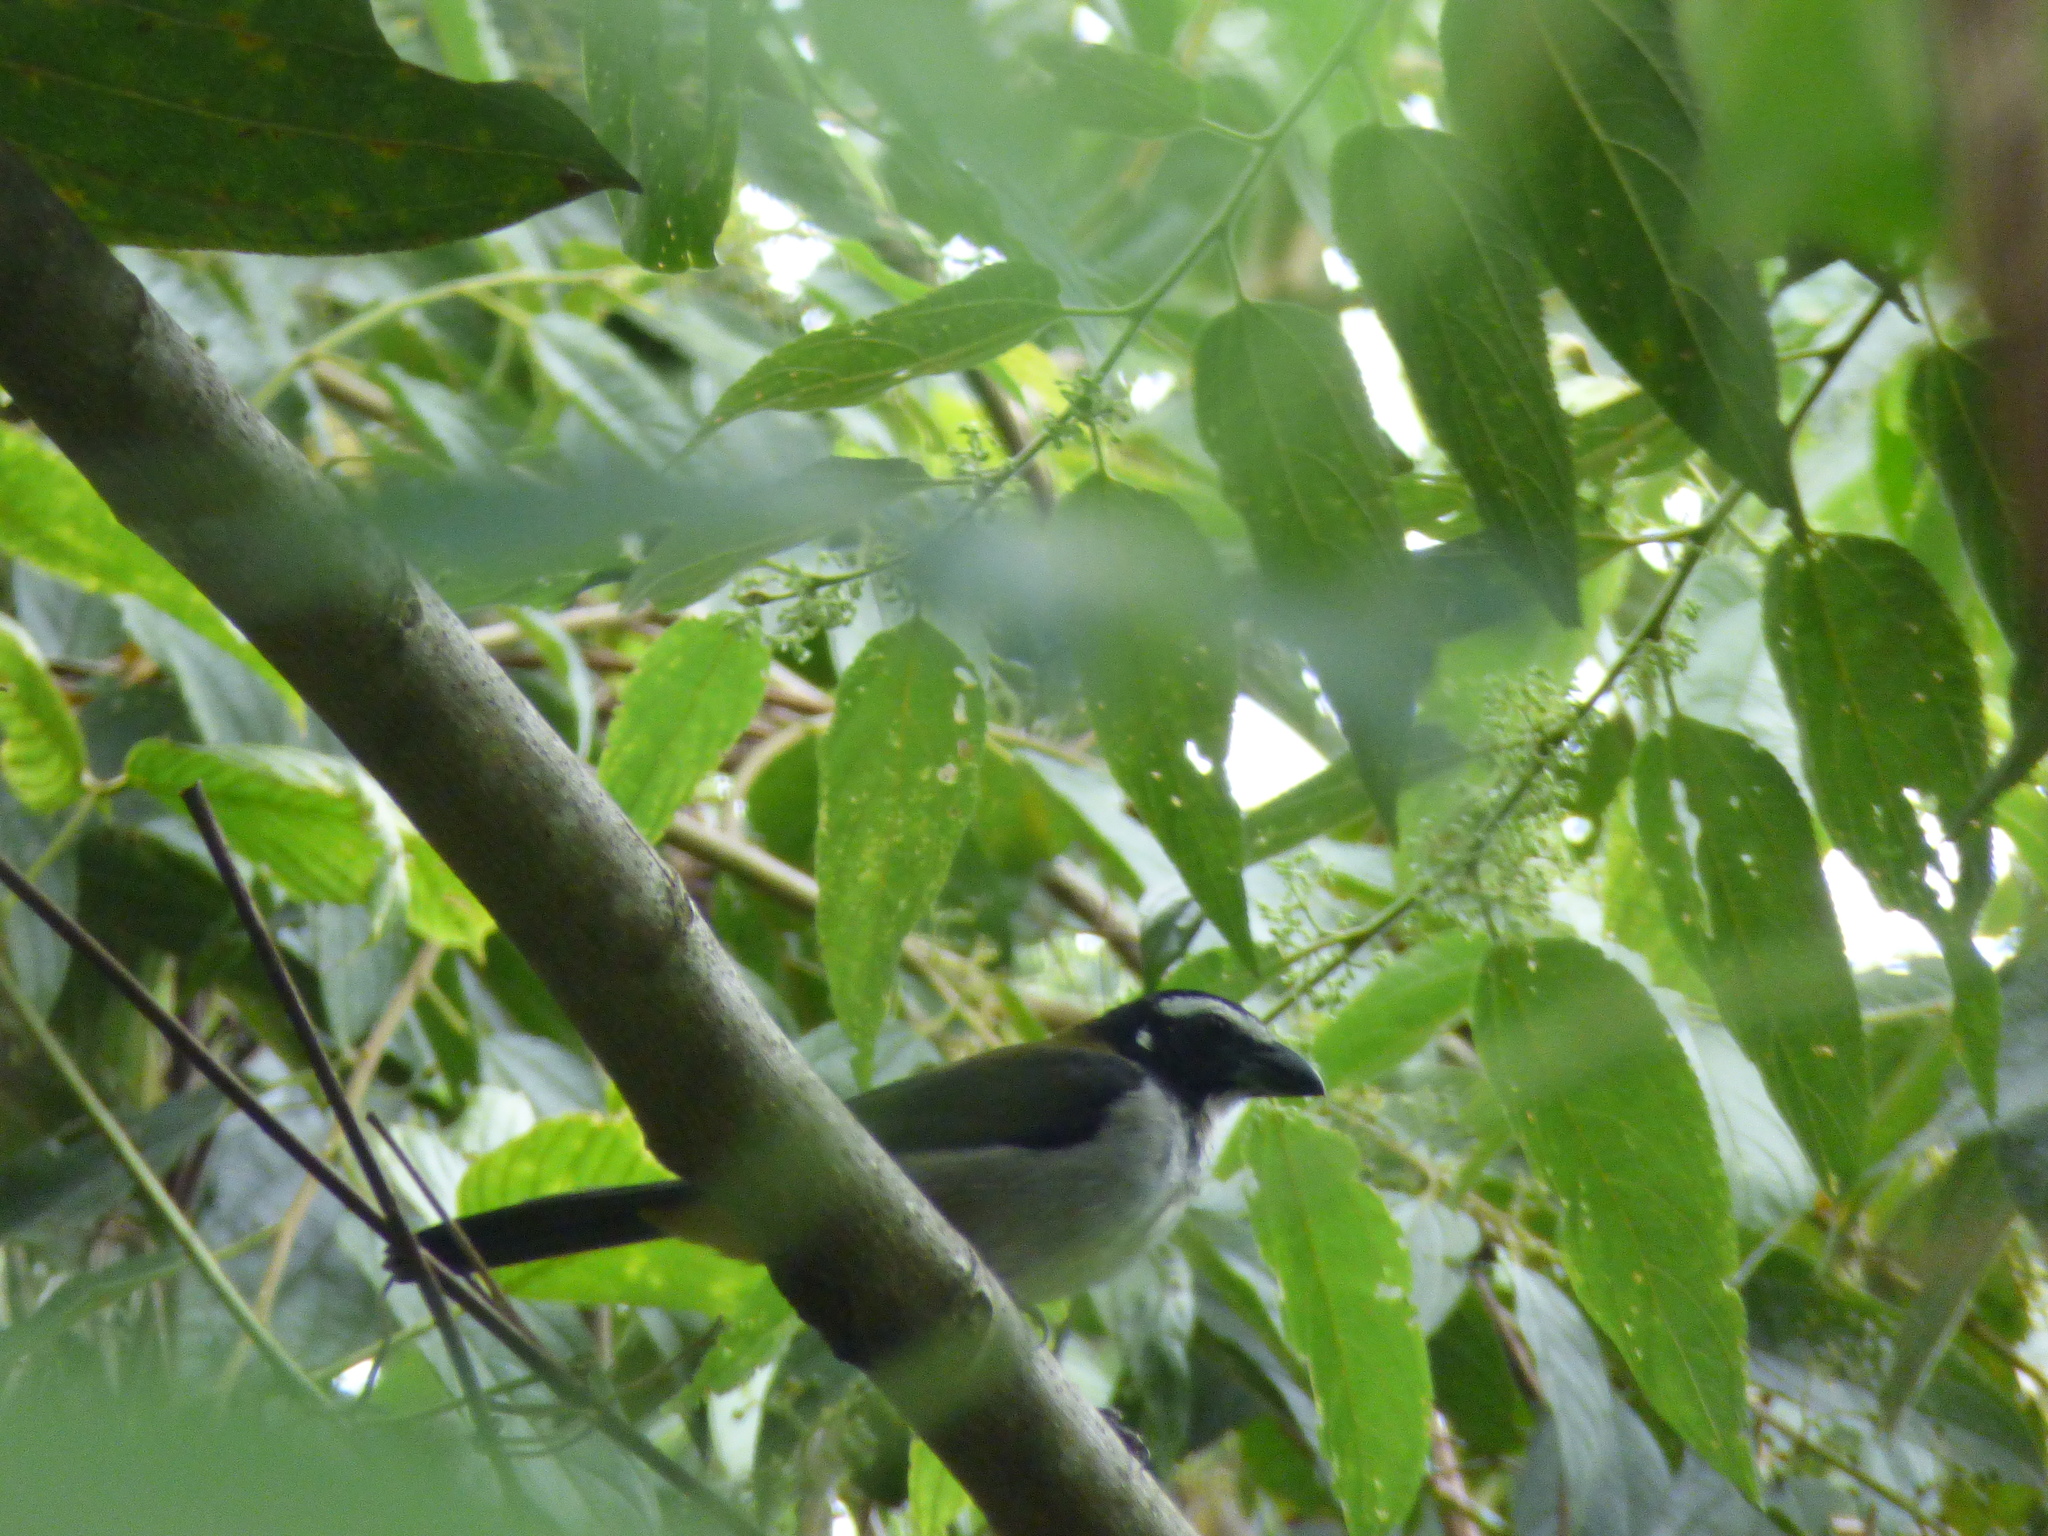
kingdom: Animalia
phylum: Chordata
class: Aves
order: Passeriformes
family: Thraupidae
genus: Saltator
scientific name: Saltator atripennis
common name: Black-winged saltator
